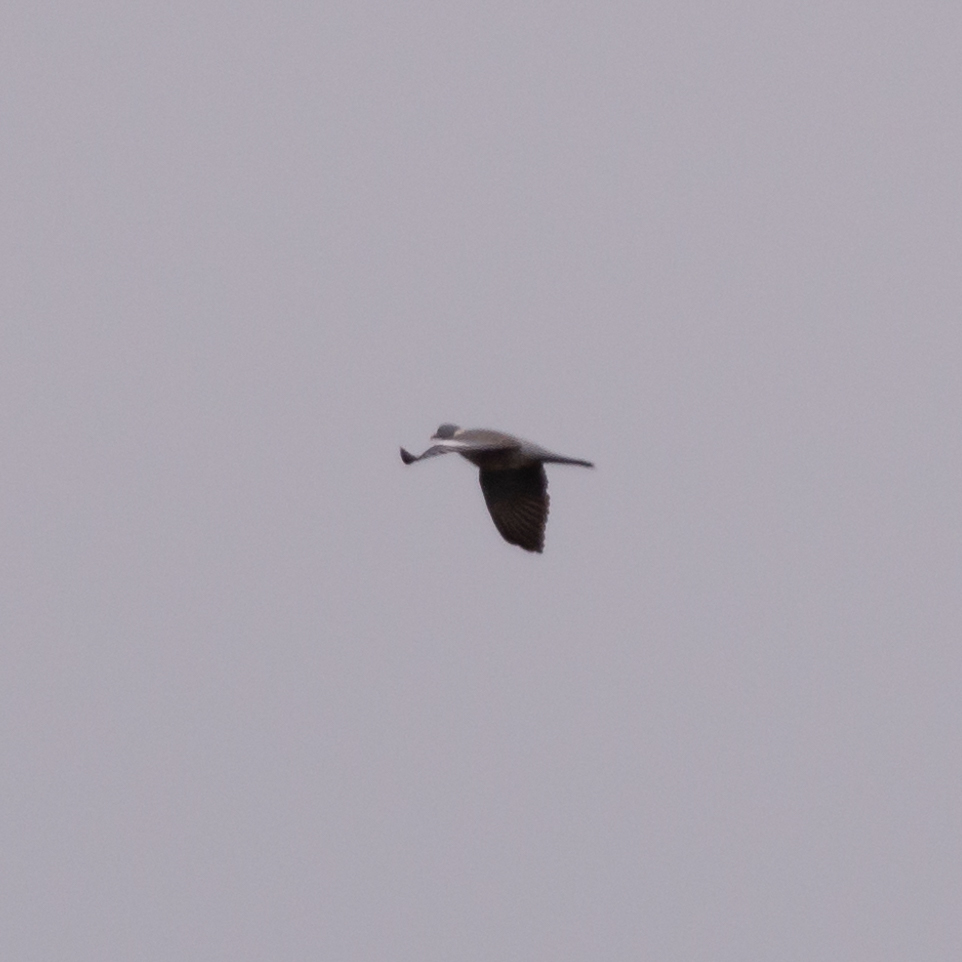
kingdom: Animalia
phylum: Chordata
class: Aves
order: Columbiformes
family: Columbidae
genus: Columba
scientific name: Columba palumbus
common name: Common wood pigeon
